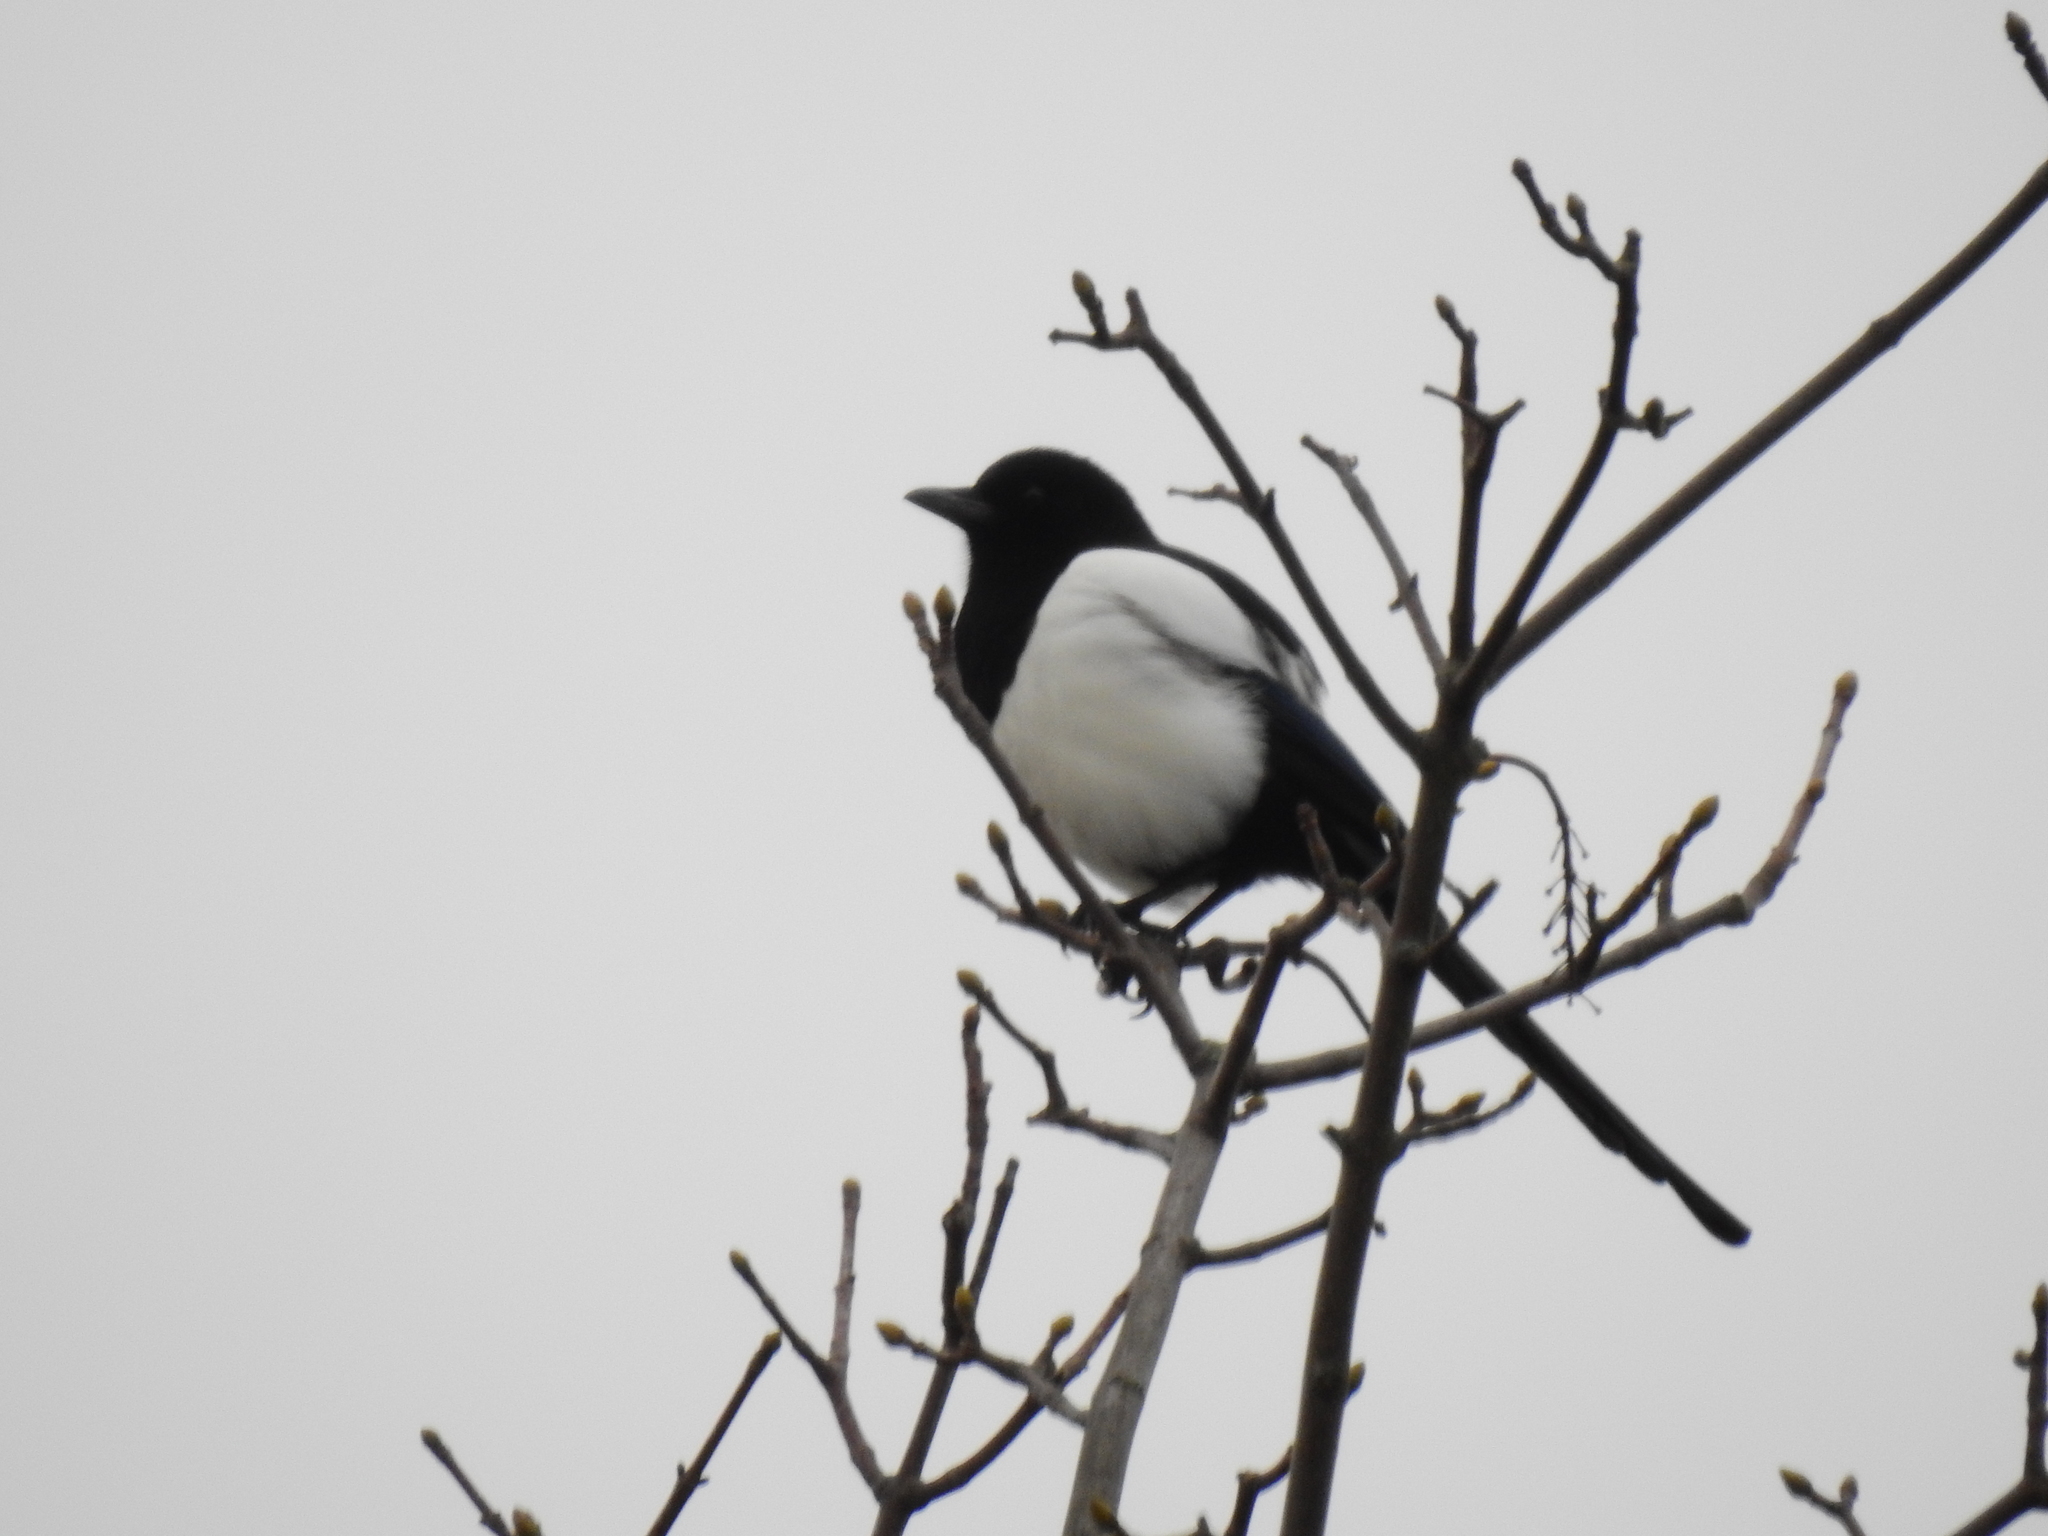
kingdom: Animalia
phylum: Chordata
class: Aves
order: Passeriformes
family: Corvidae
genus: Pica
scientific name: Pica pica
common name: Eurasian magpie
